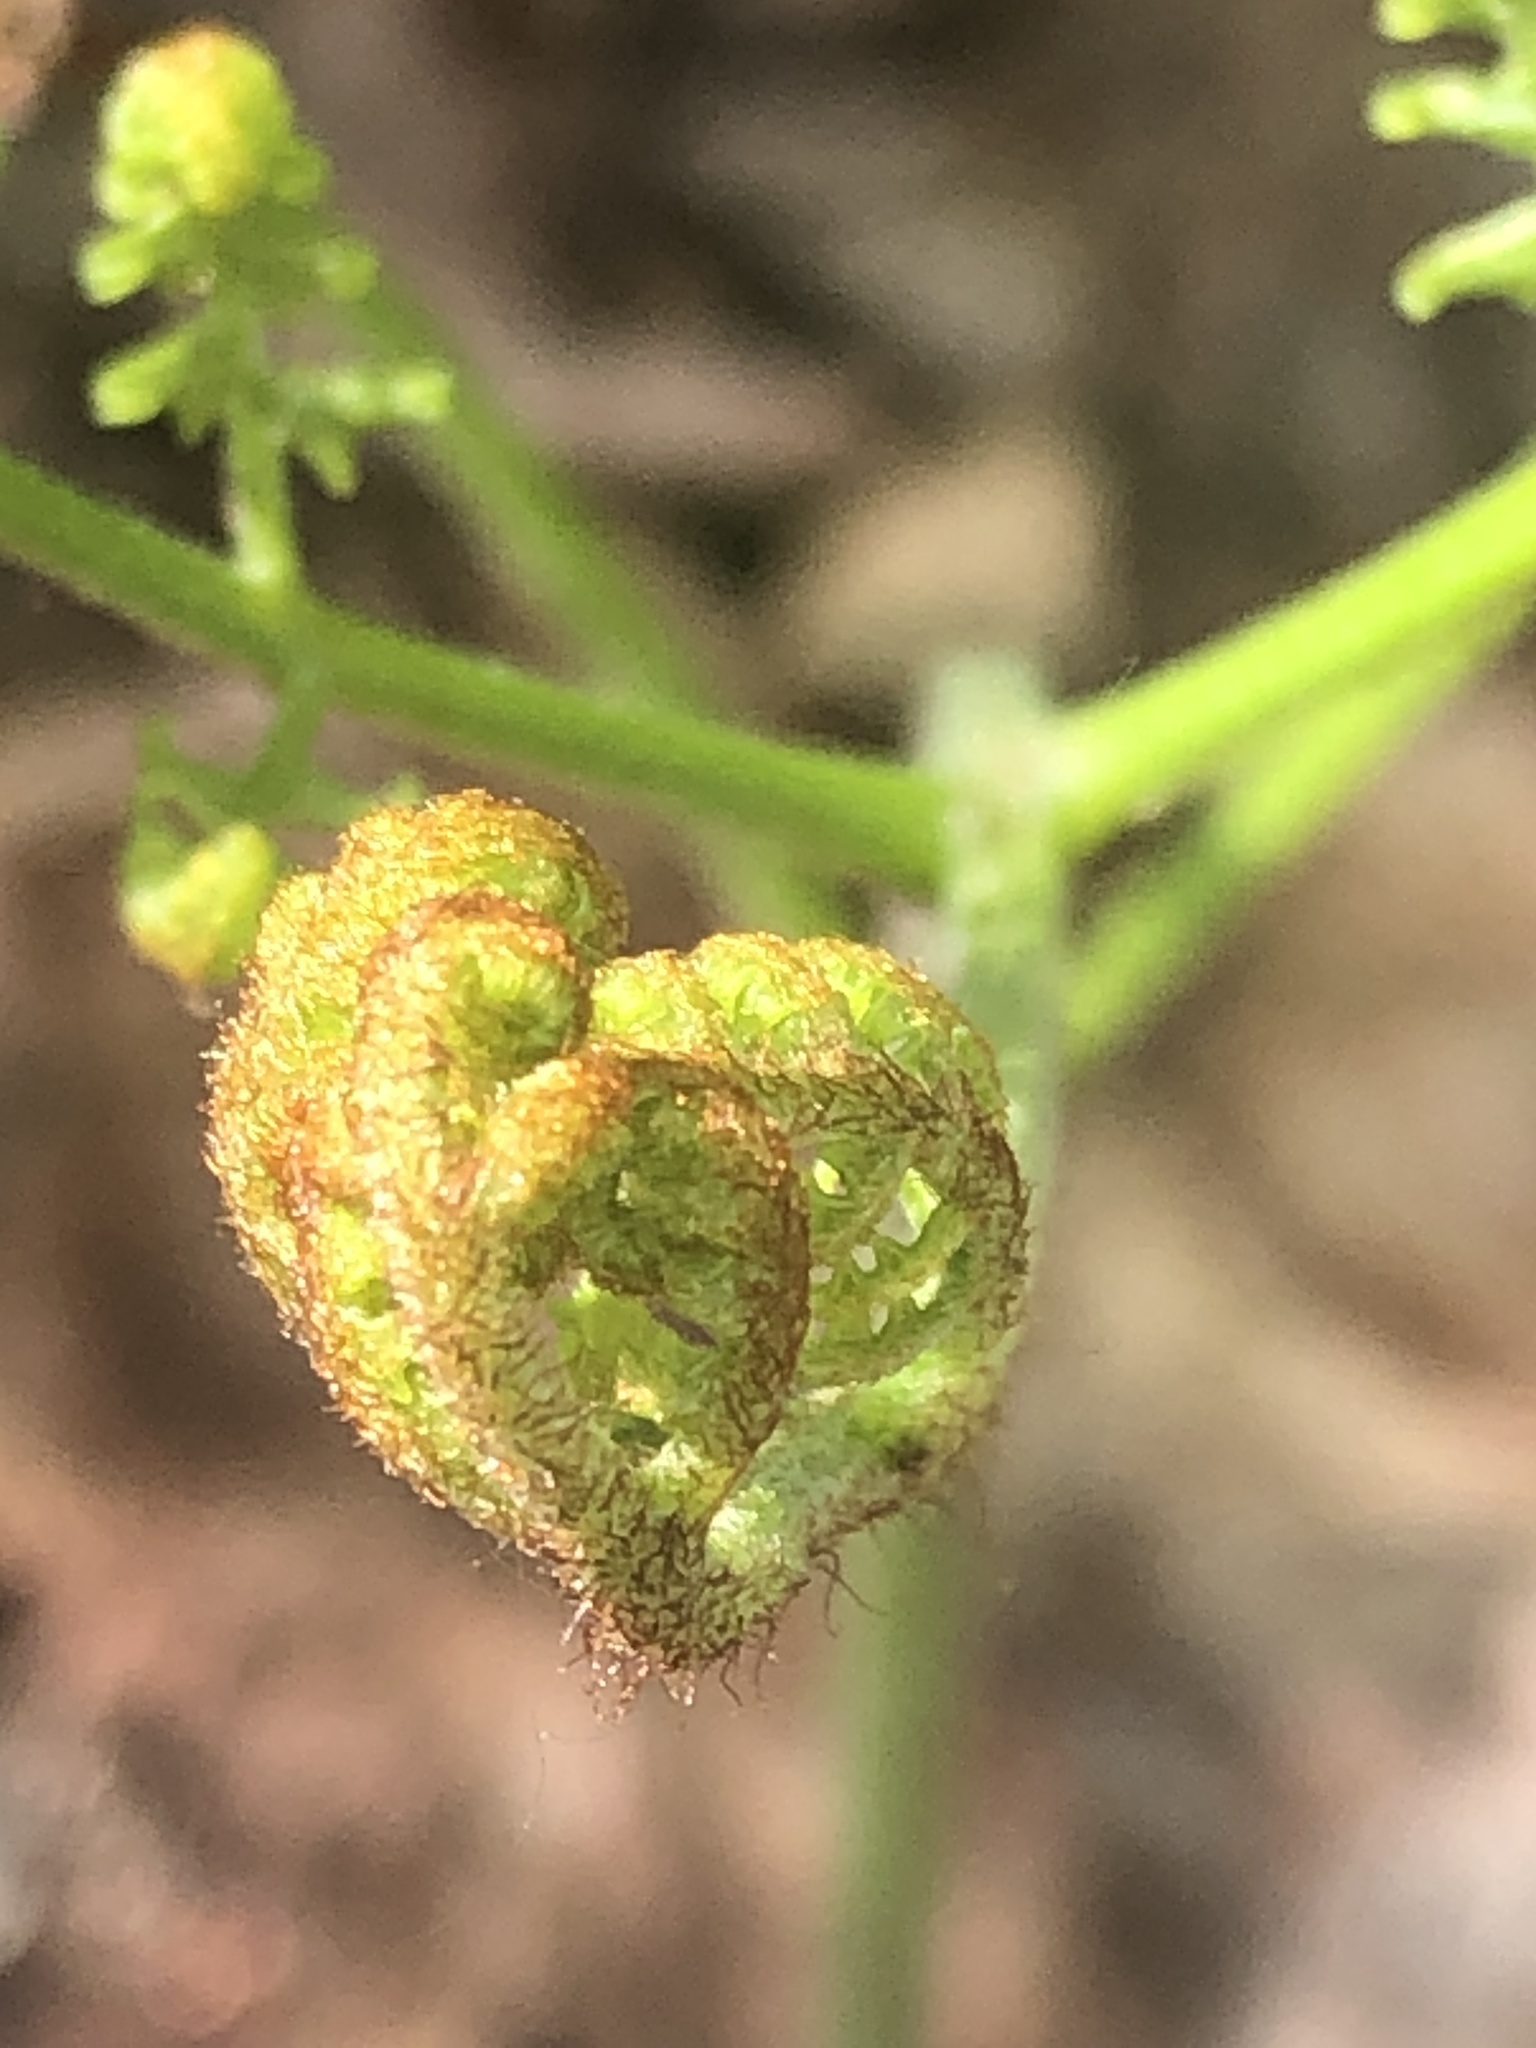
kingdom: Plantae
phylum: Tracheophyta
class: Polypodiopsida
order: Polypodiales
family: Dennstaedtiaceae
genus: Pteridium
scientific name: Pteridium aquilinum
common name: Bracken
